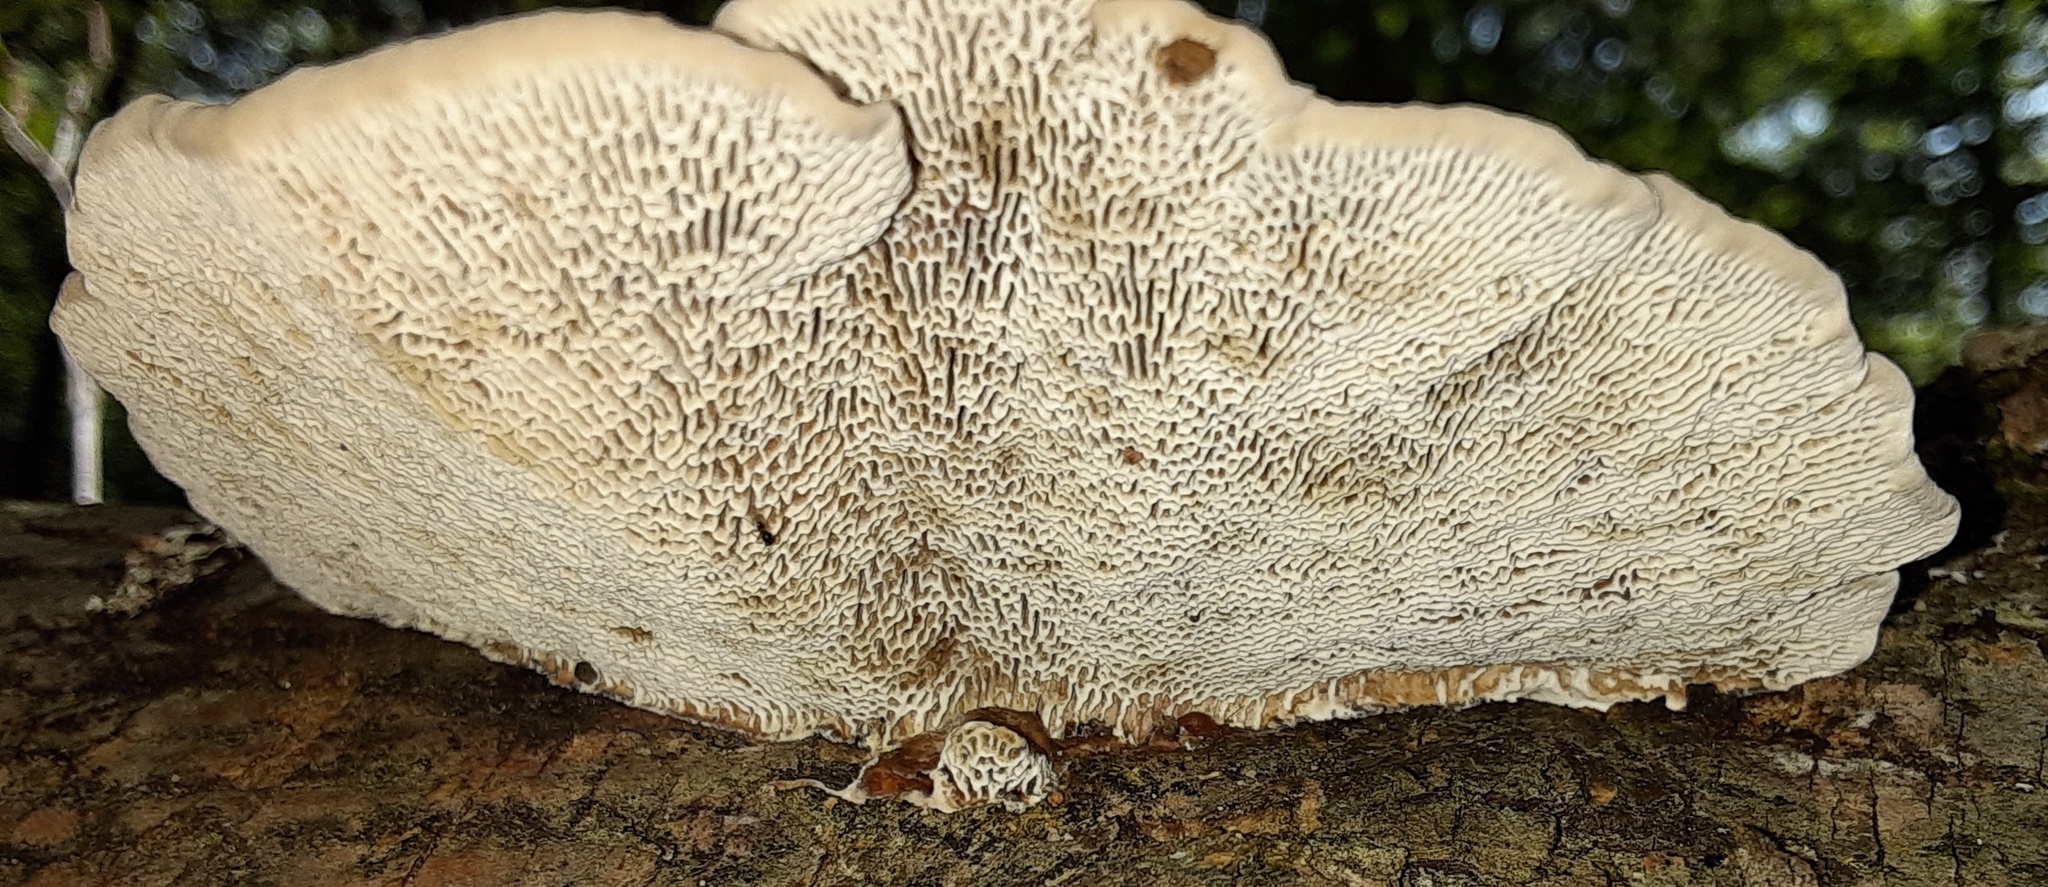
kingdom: Fungi
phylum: Basidiomycota
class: Agaricomycetes
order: Polyporales
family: Polyporaceae
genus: Daedaleopsis
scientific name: Daedaleopsis confragosa
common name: Blushing bracket
